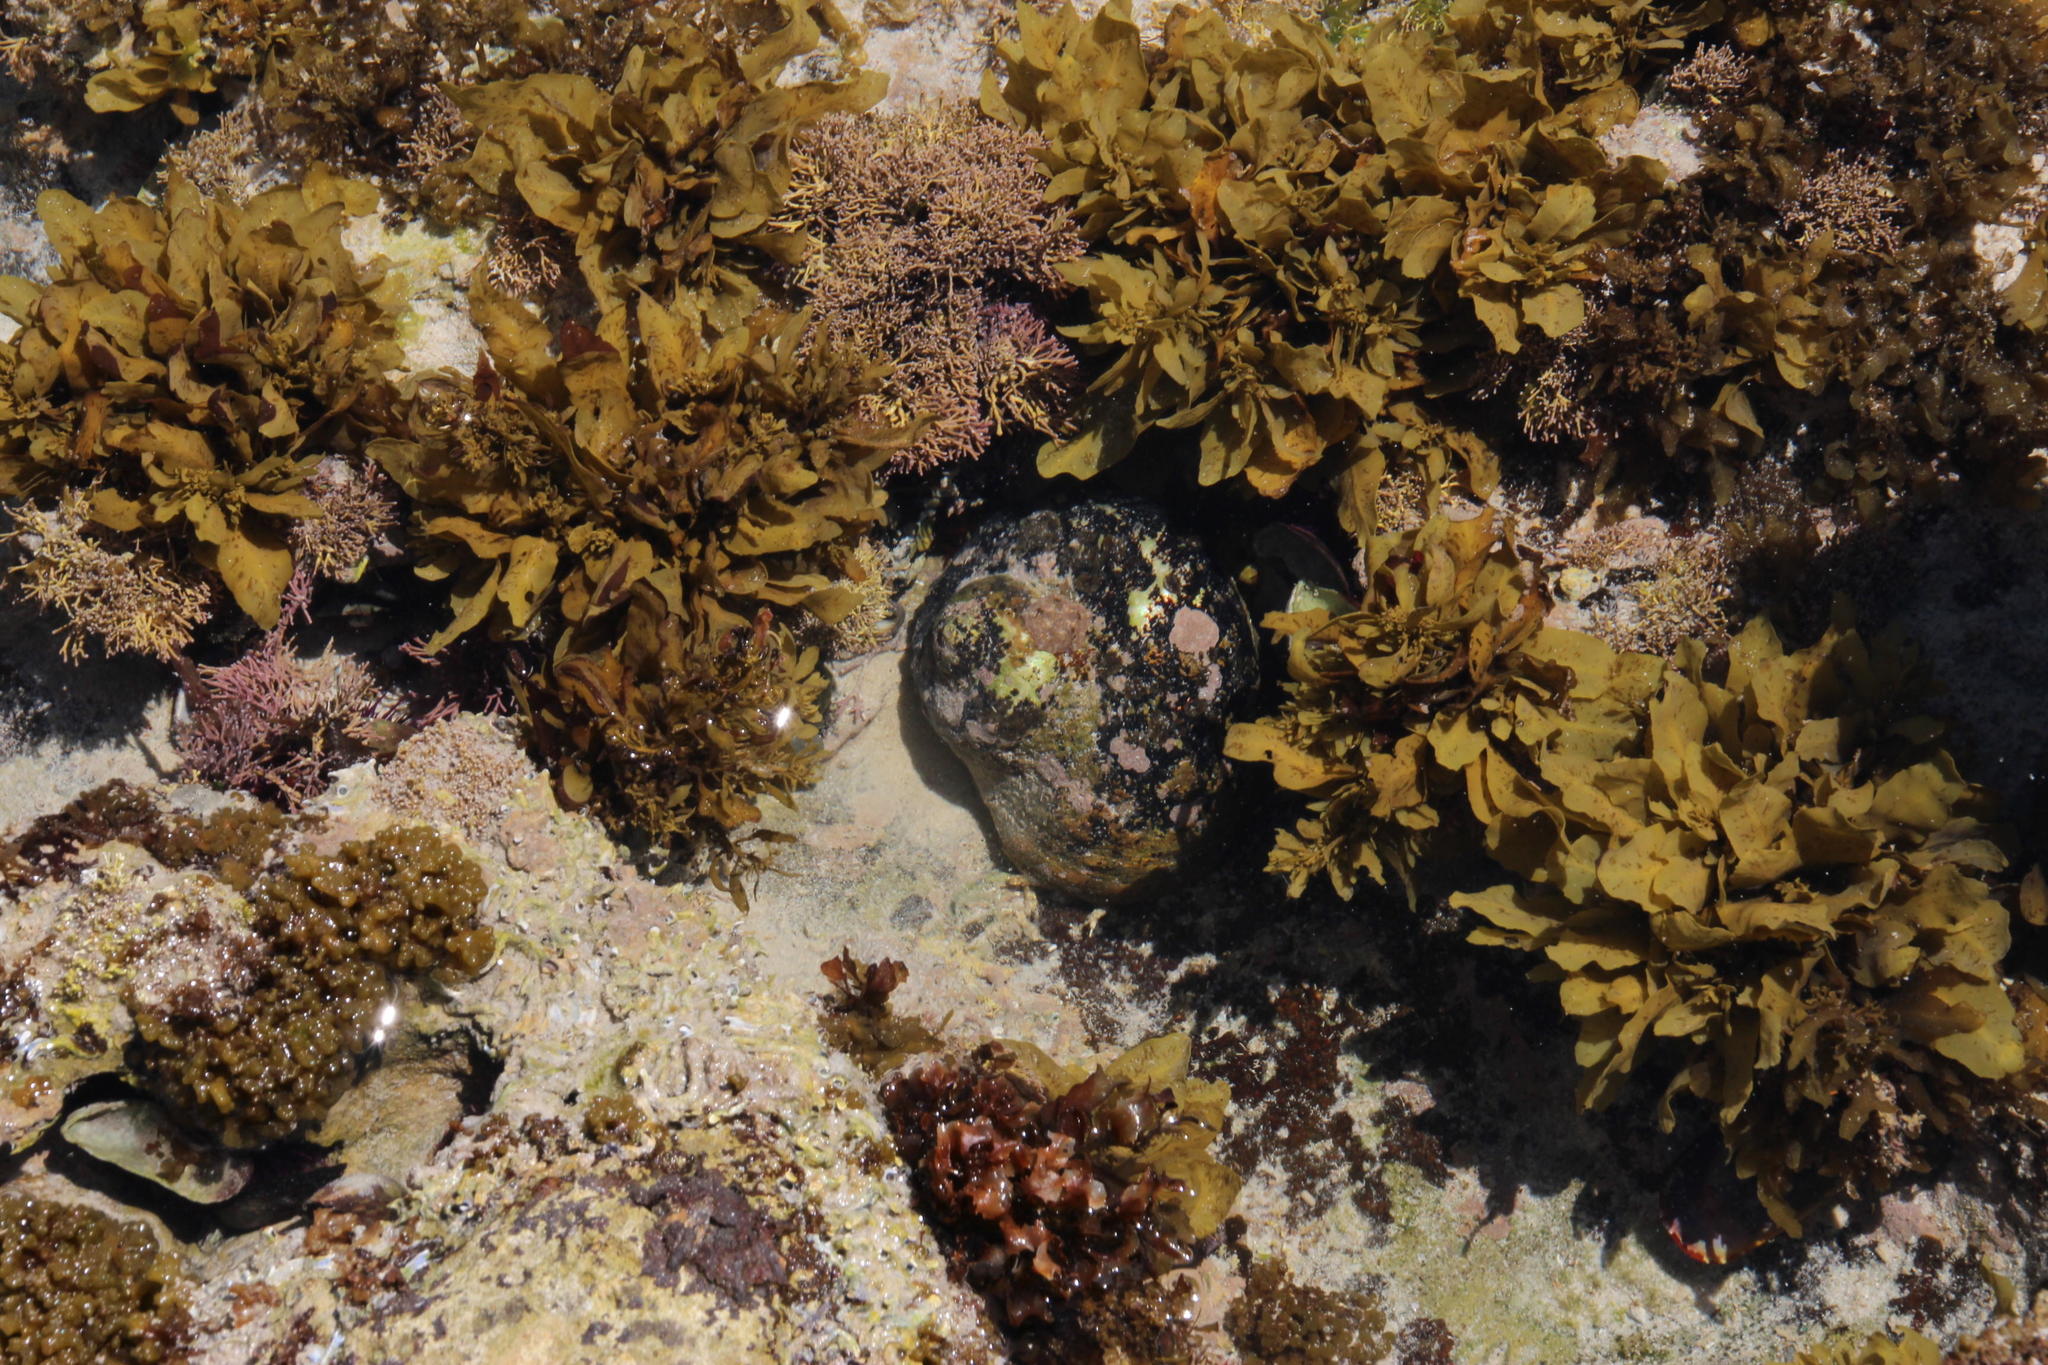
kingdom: Animalia
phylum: Mollusca
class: Gastropoda
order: Trochida
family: Turbinidae
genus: Turbo
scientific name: Turbo sarmaticus
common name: South african turban
